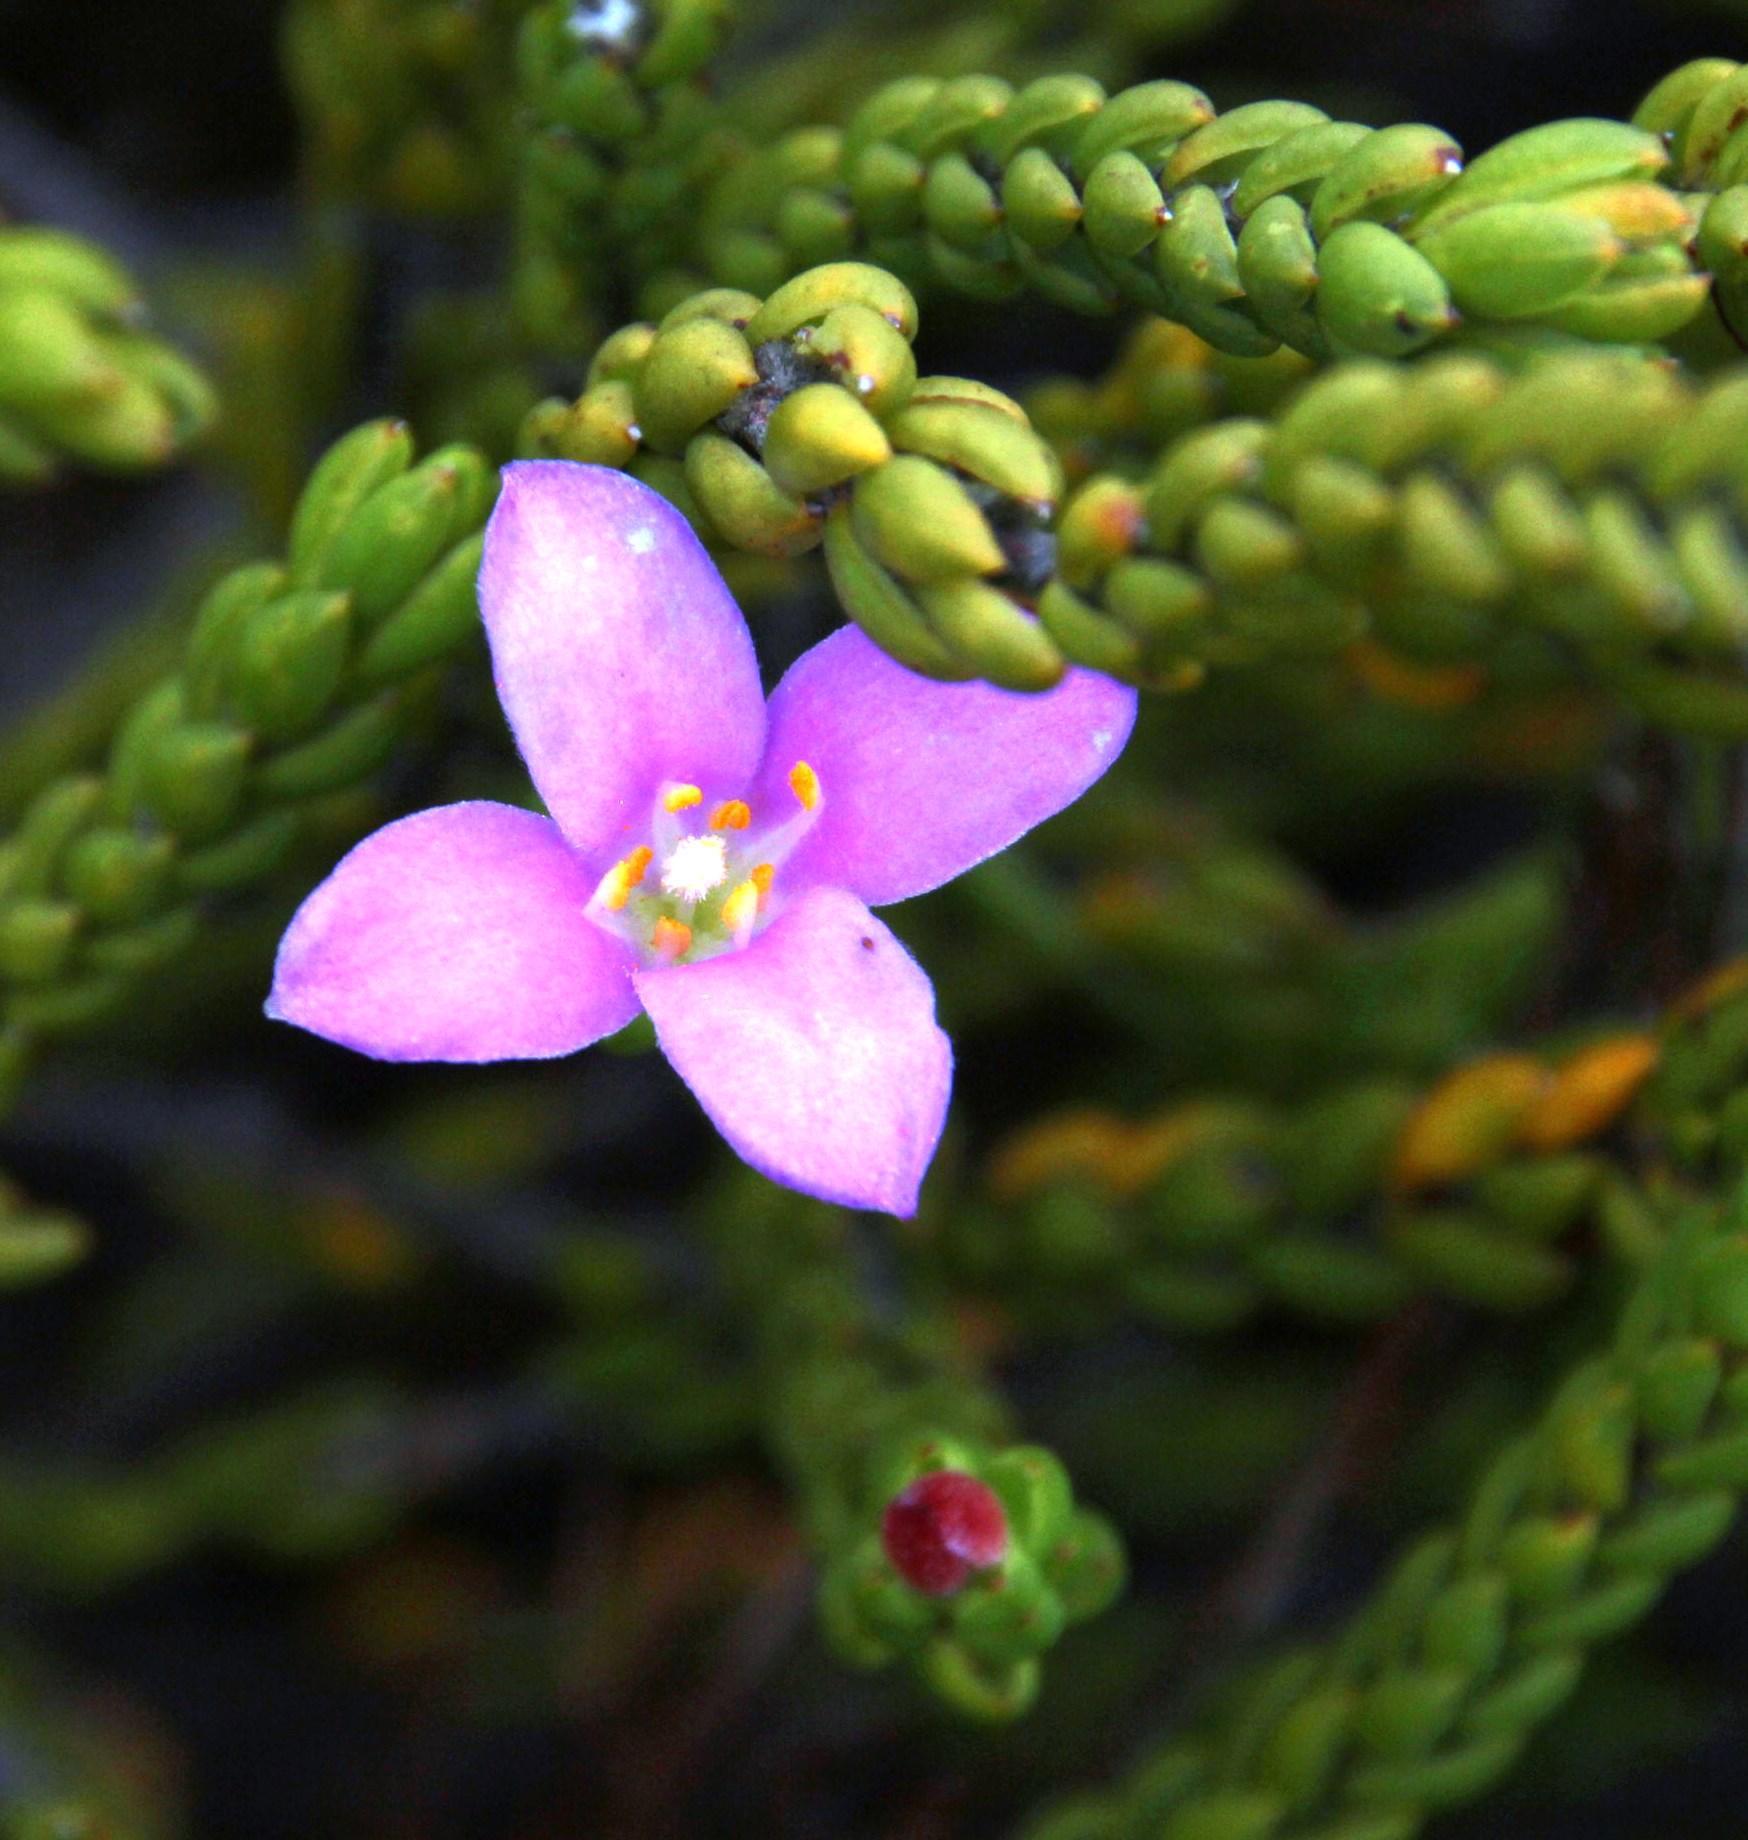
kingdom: Plantae
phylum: Tracheophyta
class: Magnoliopsida
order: Malvales
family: Thymelaeaceae
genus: Lachnaea
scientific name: Lachnaea grandiflora
